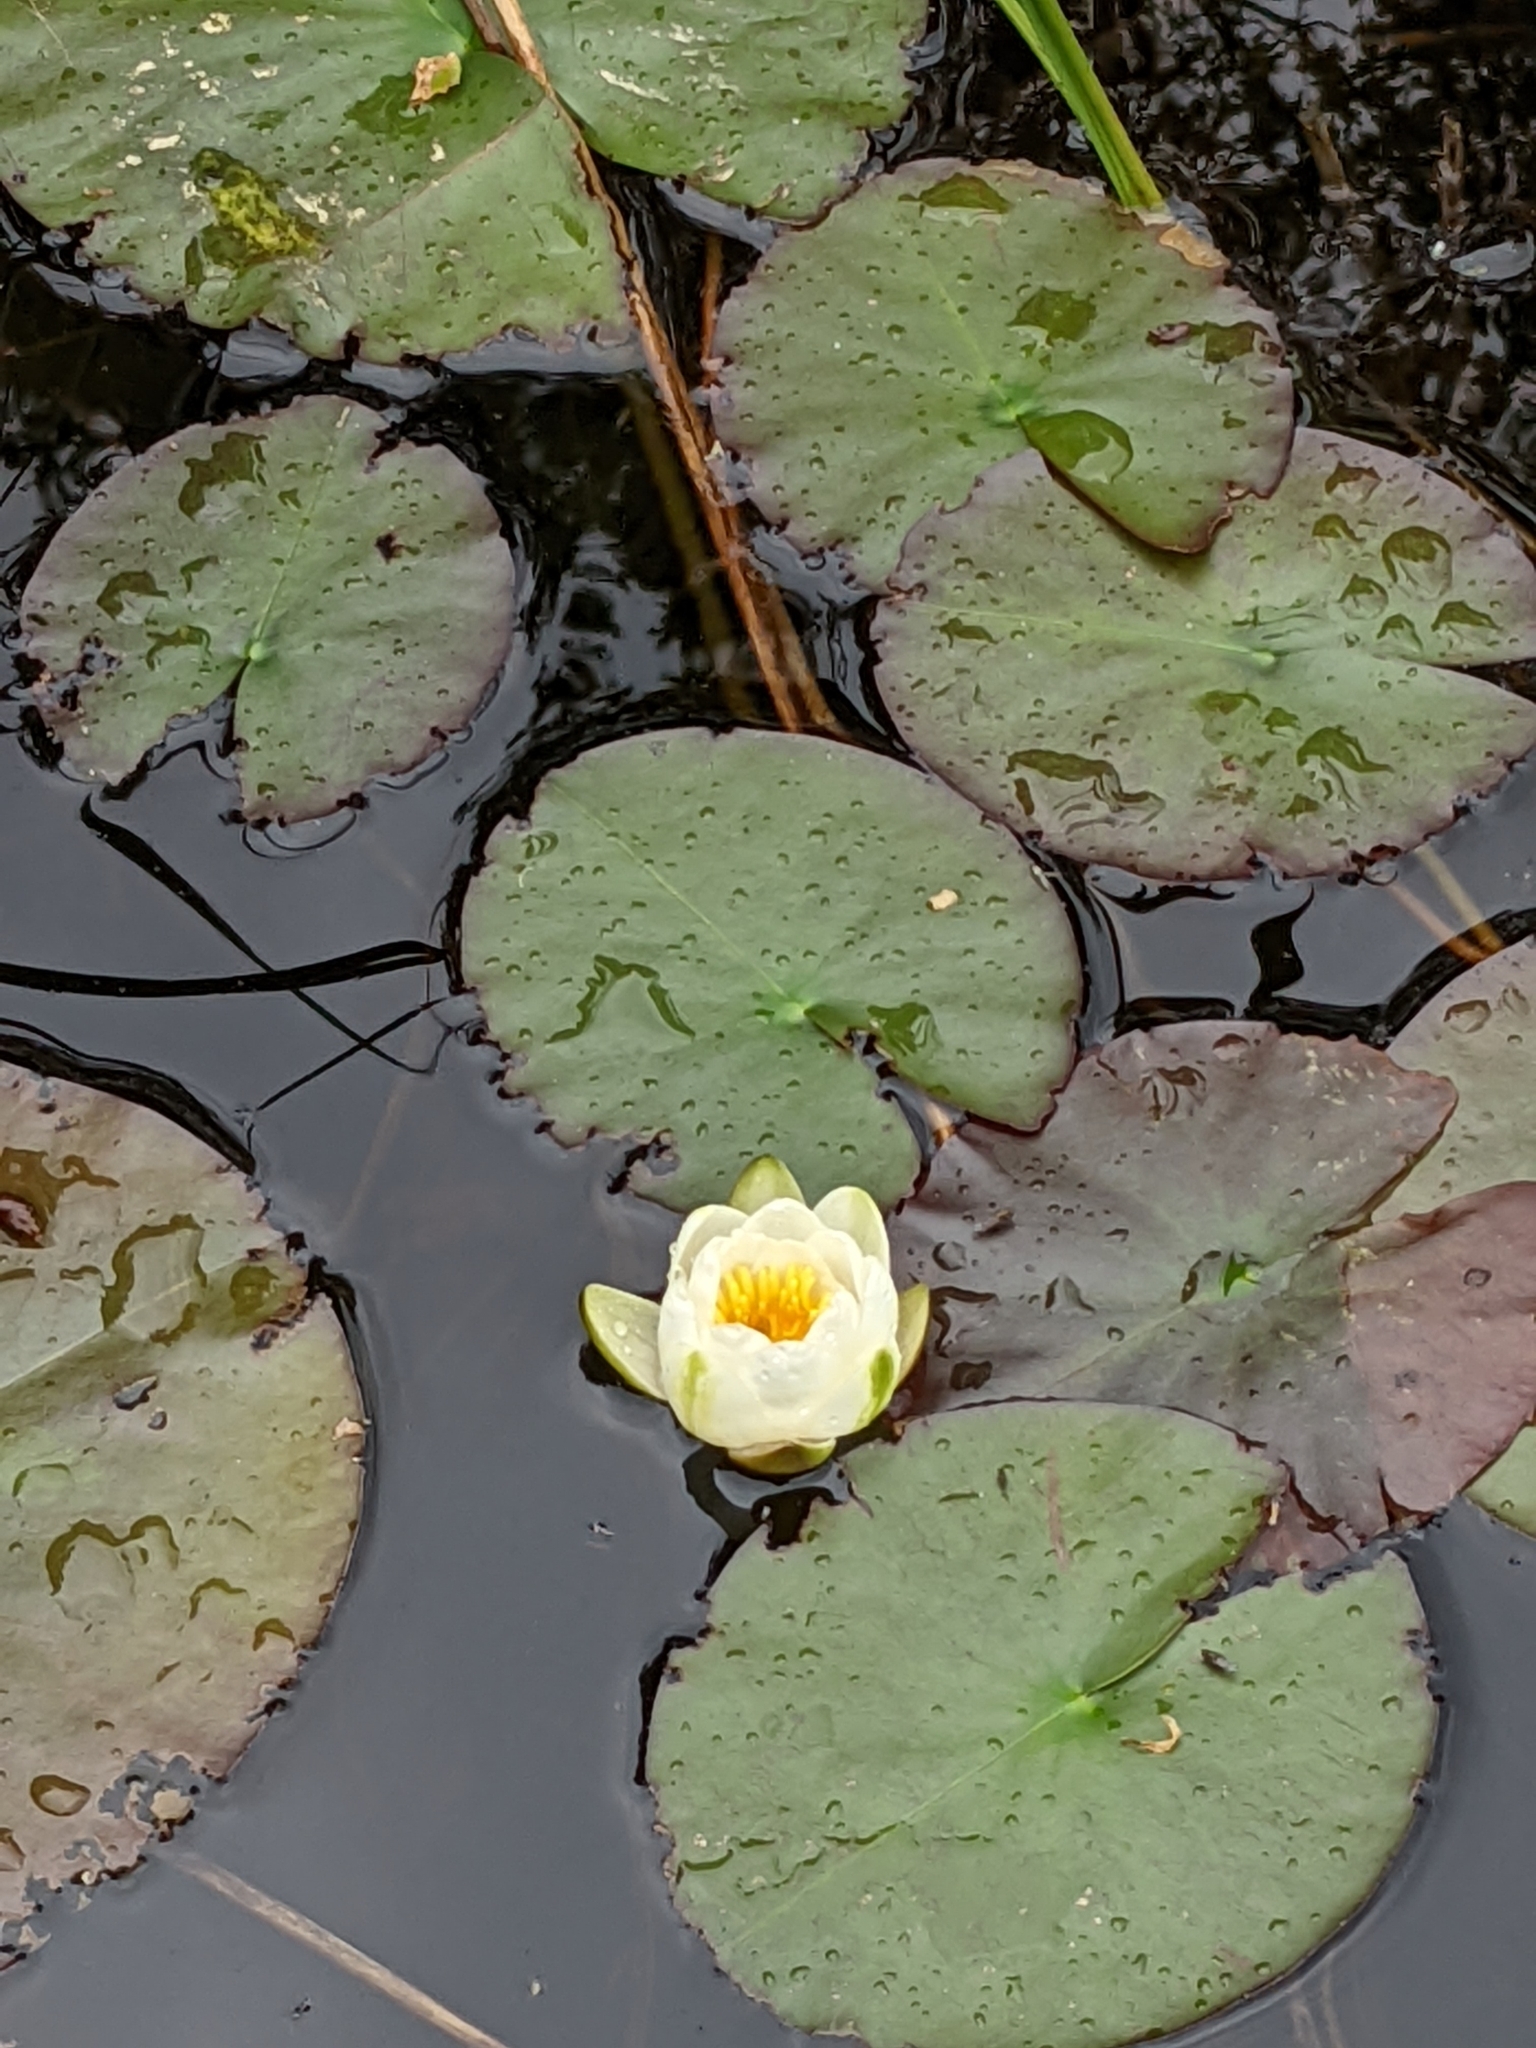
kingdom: Plantae
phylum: Tracheophyta
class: Magnoliopsida
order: Nymphaeales
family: Nymphaeaceae
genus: Nymphaea
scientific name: Nymphaea alba
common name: White water-lily
